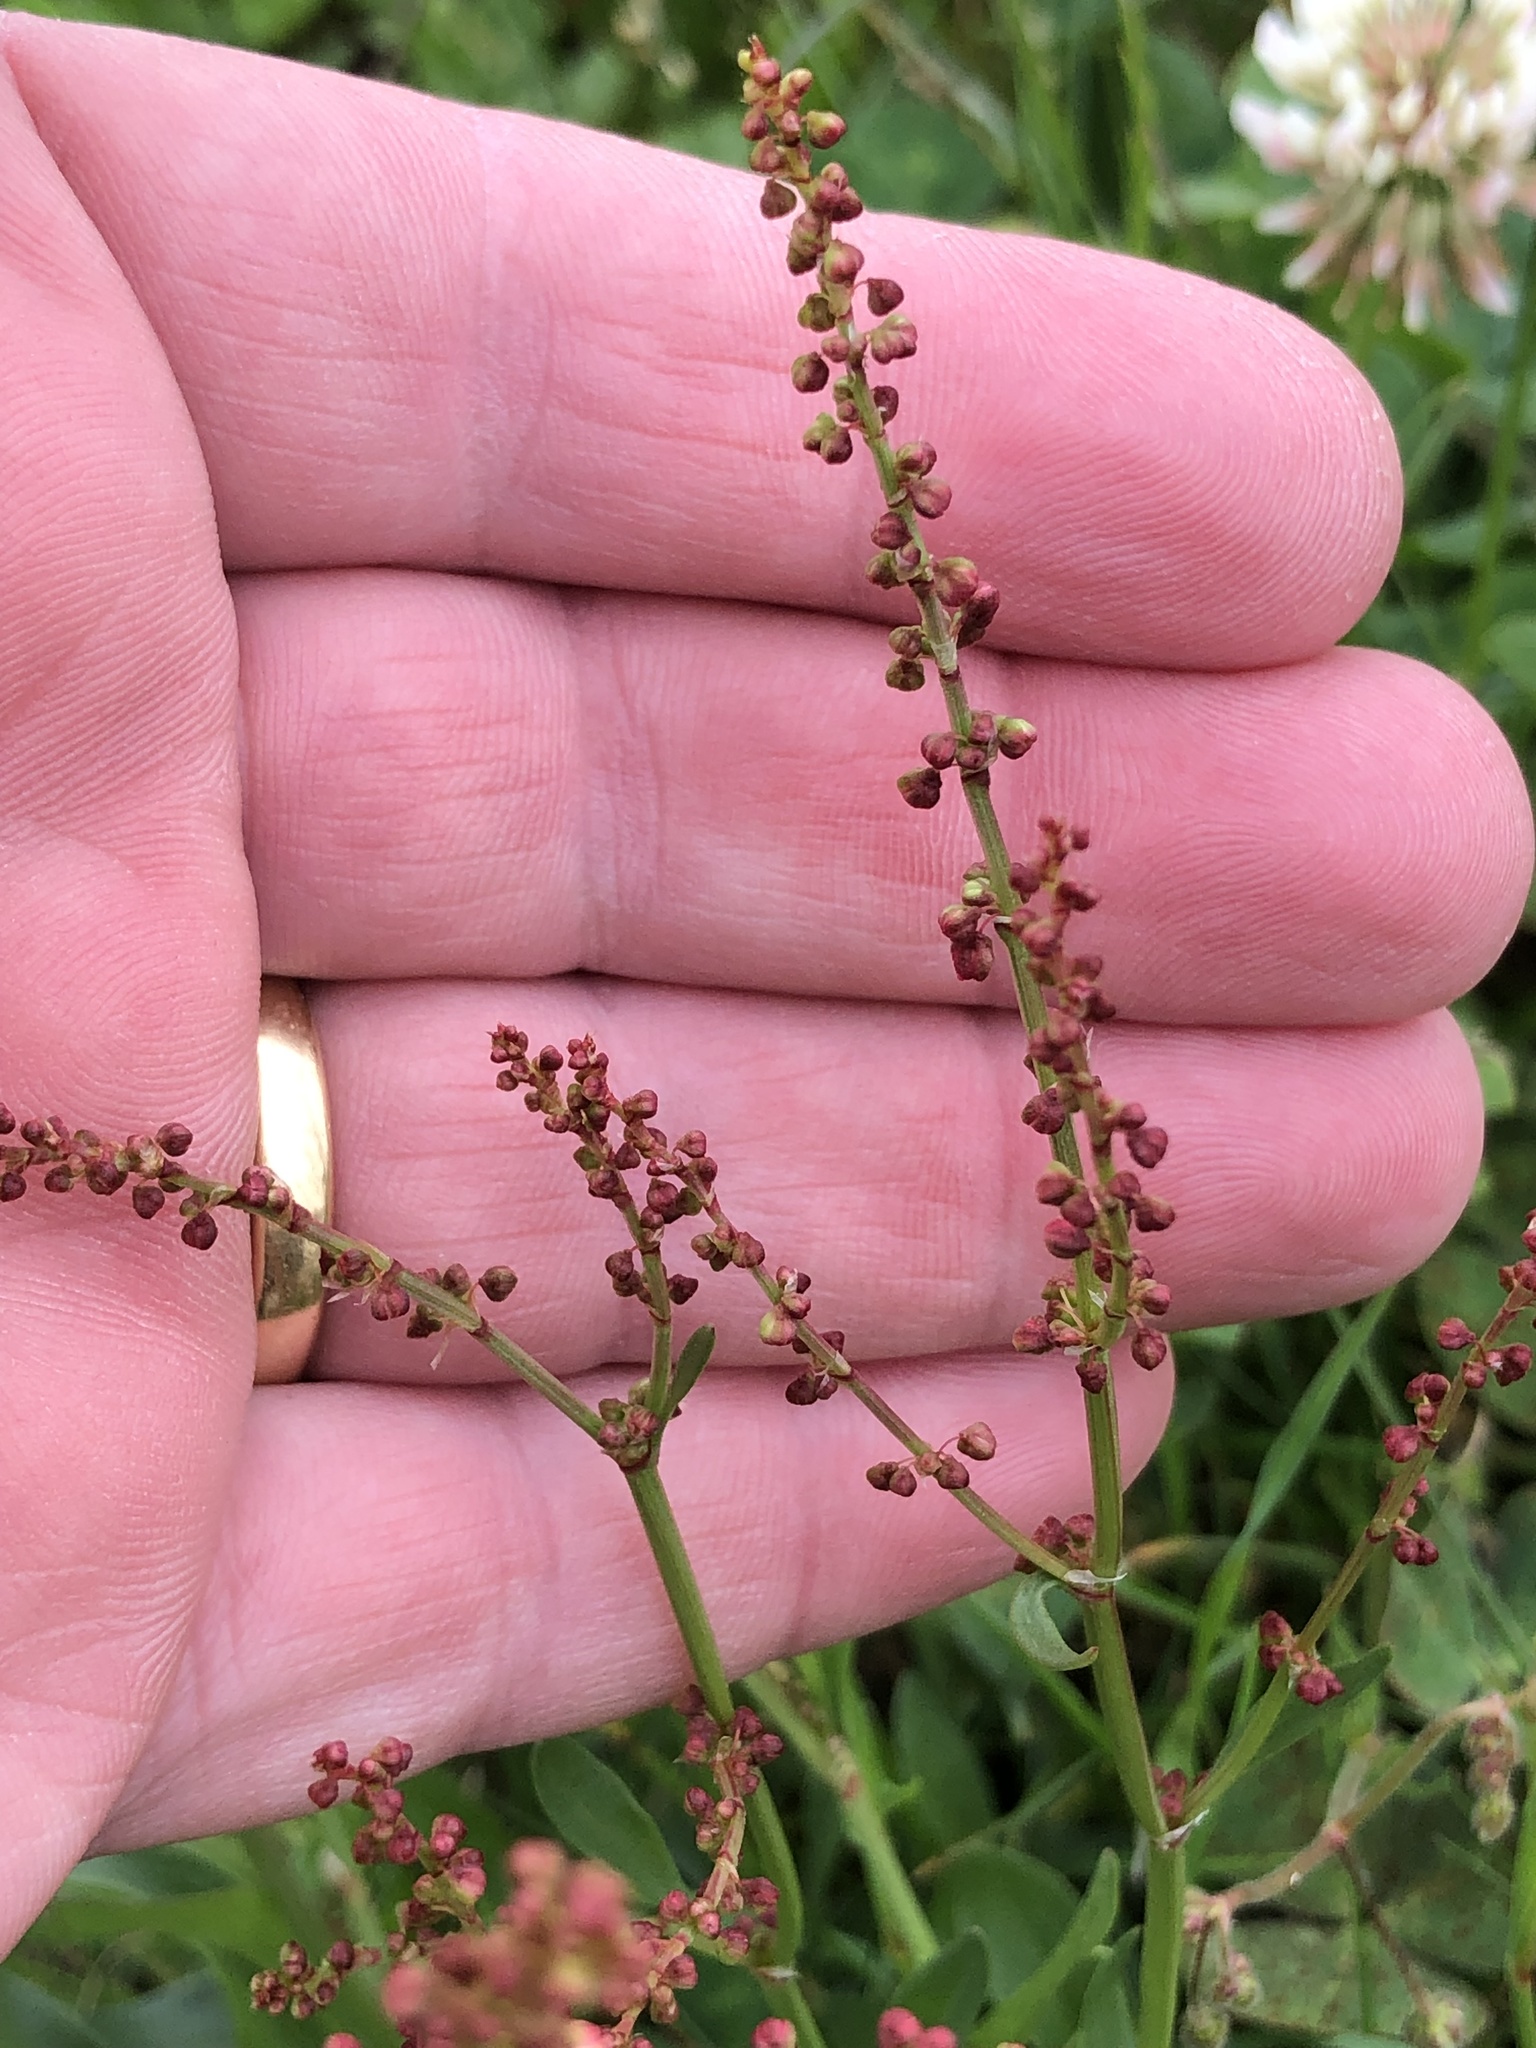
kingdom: Plantae
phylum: Tracheophyta
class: Magnoliopsida
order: Caryophyllales
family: Polygonaceae
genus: Rumex
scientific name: Rumex acetosella
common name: Common sheep sorrel
